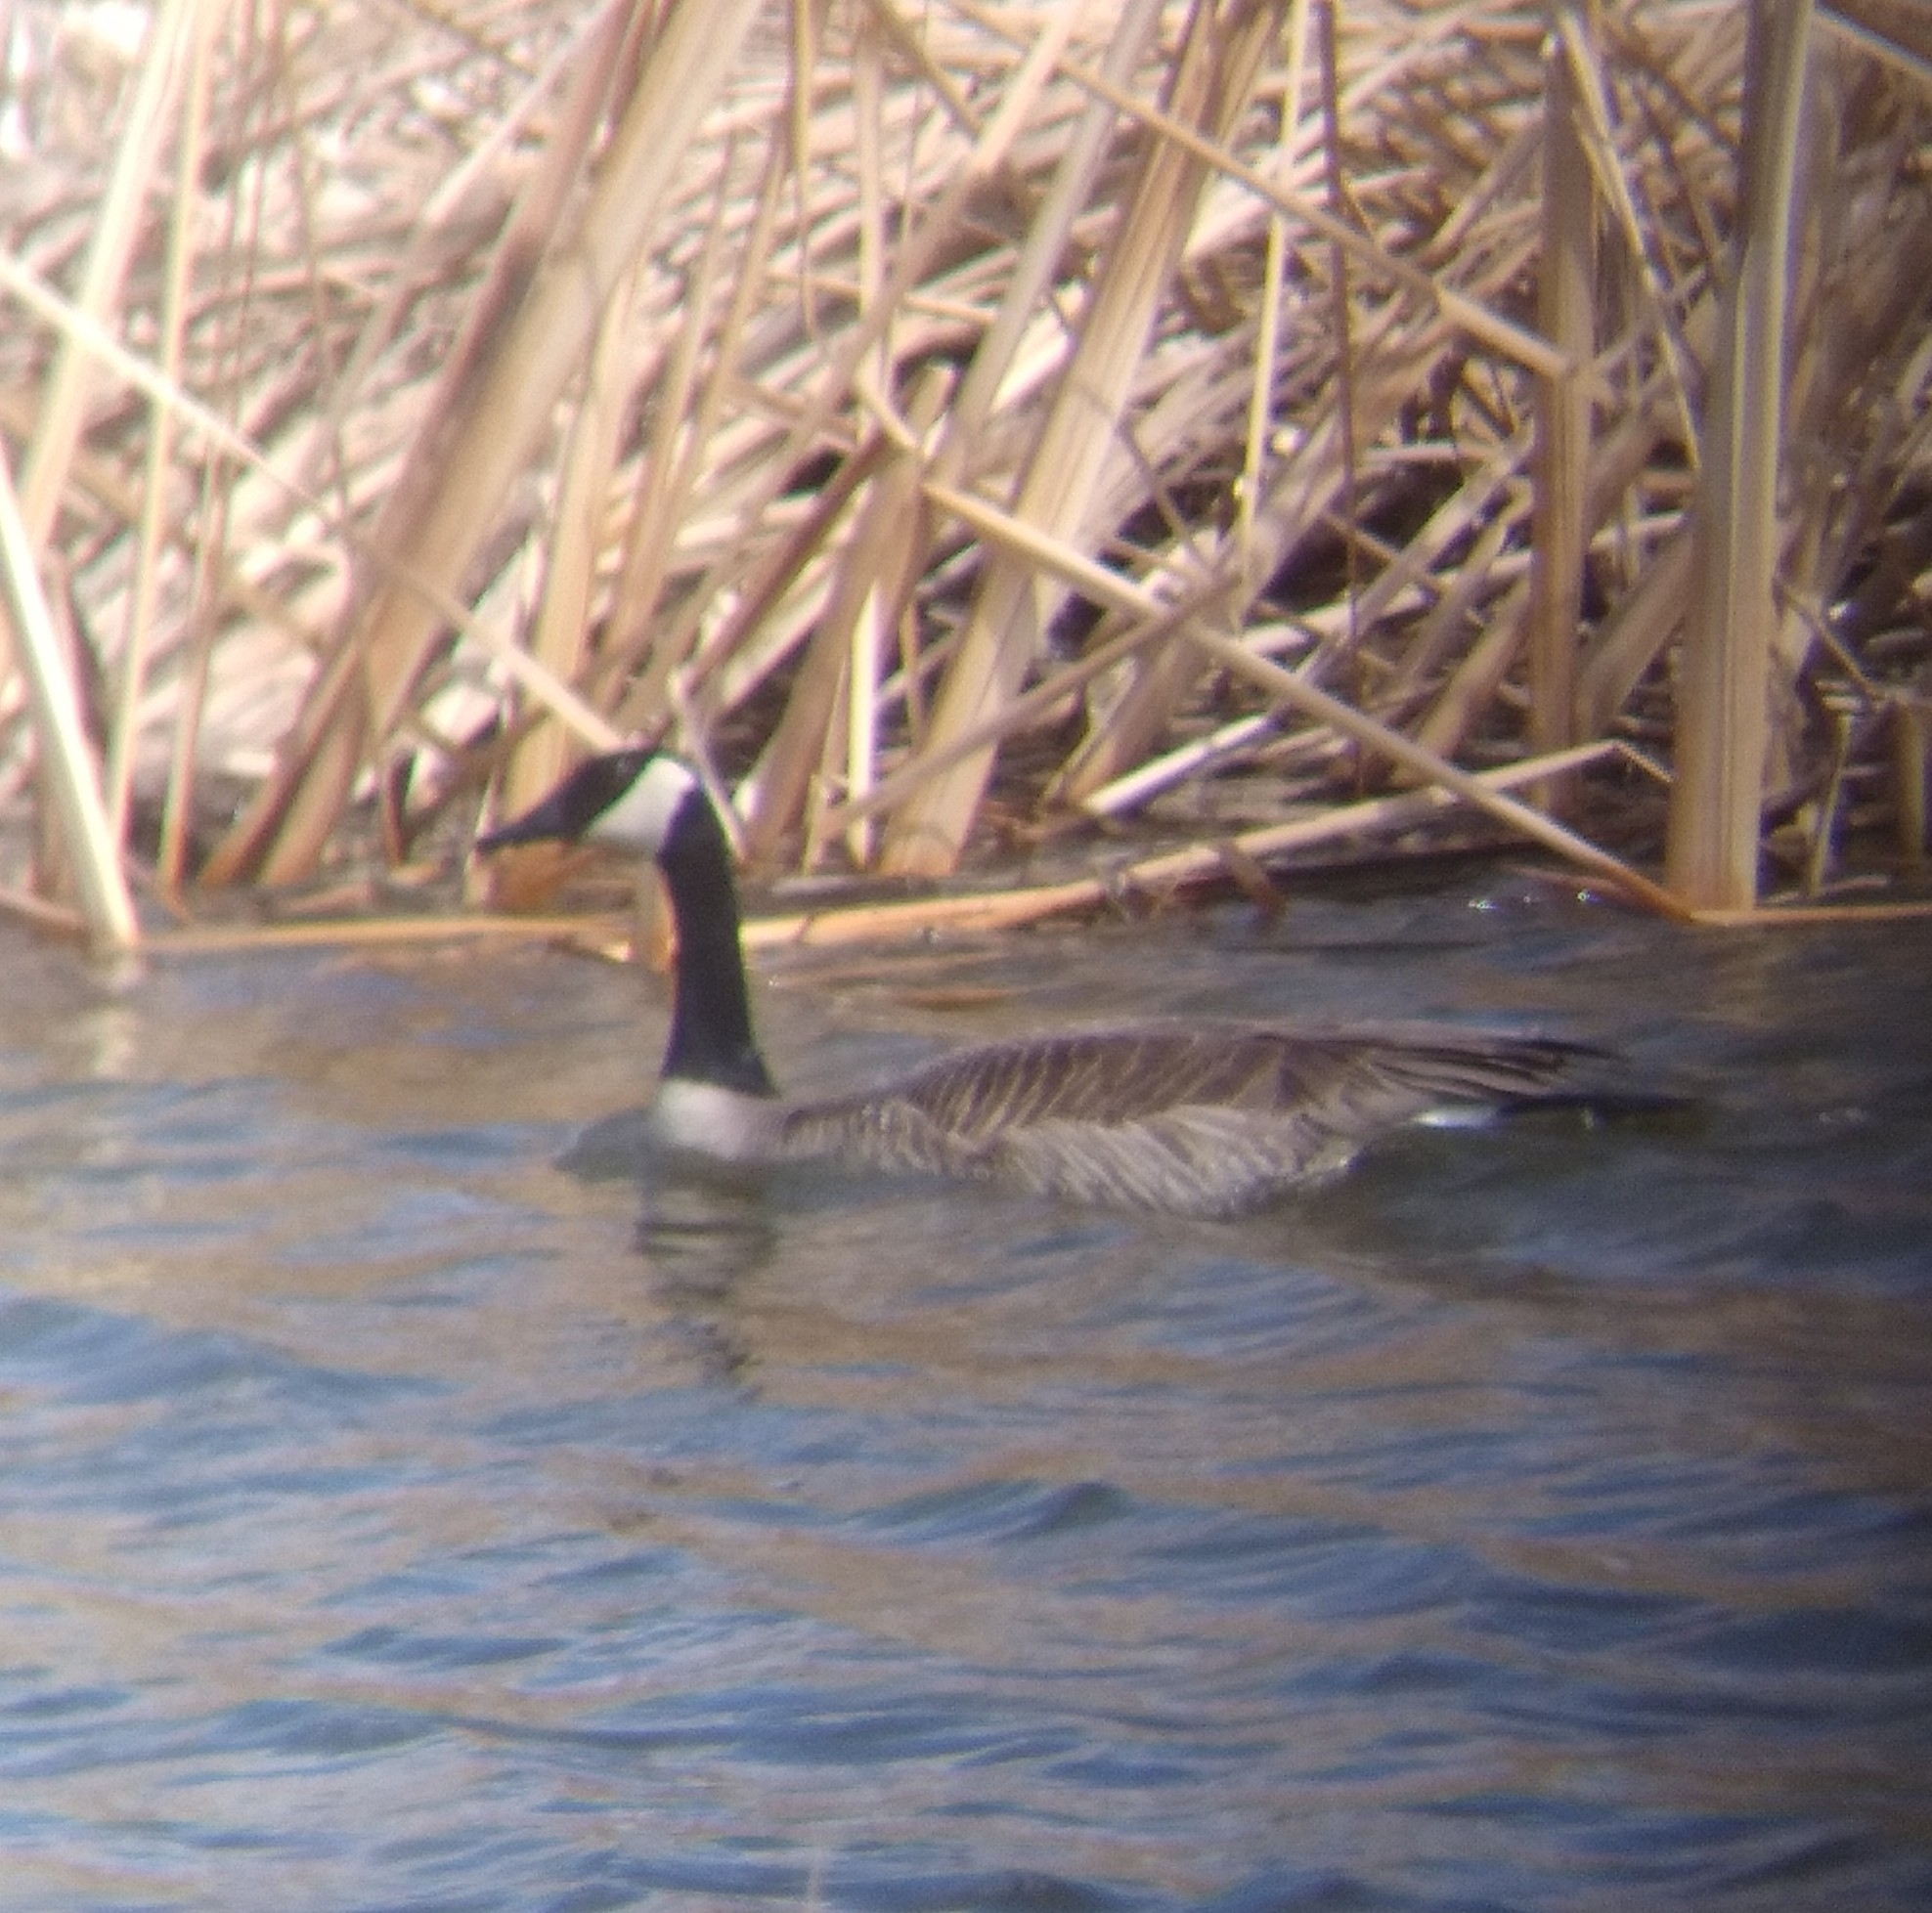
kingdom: Animalia
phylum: Chordata
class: Aves
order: Anseriformes
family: Anatidae
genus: Branta
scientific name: Branta canadensis
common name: Canada goose
